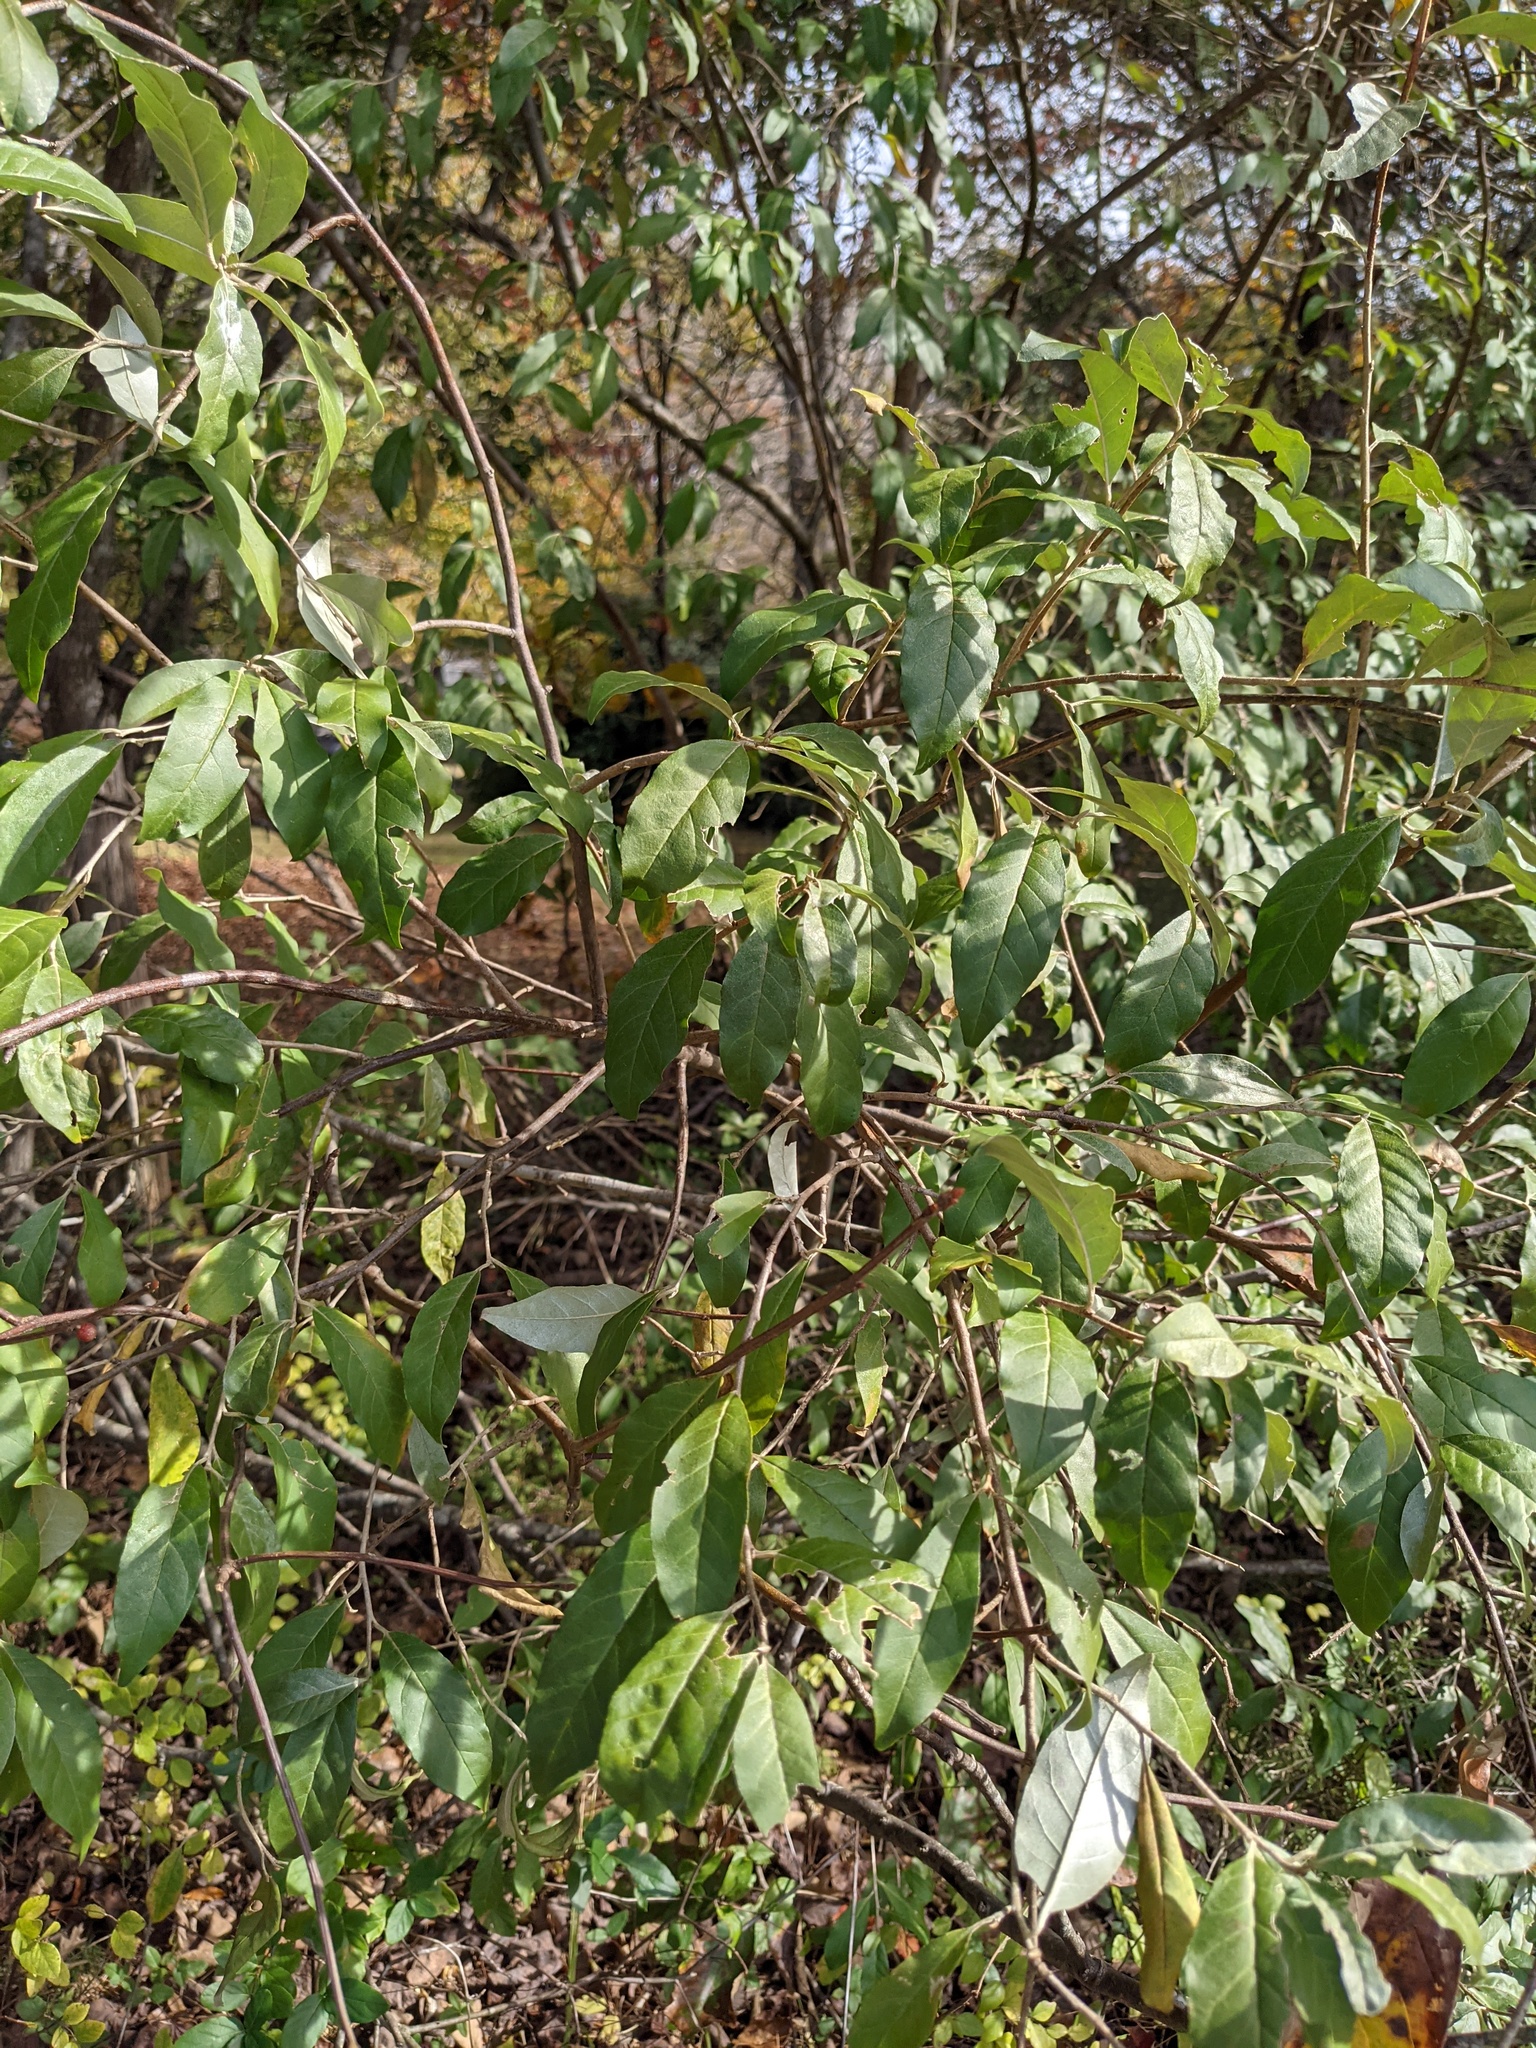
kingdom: Plantae
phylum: Tracheophyta
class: Magnoliopsida
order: Rosales
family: Elaeagnaceae
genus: Elaeagnus
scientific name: Elaeagnus umbellata
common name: Autumn olive
